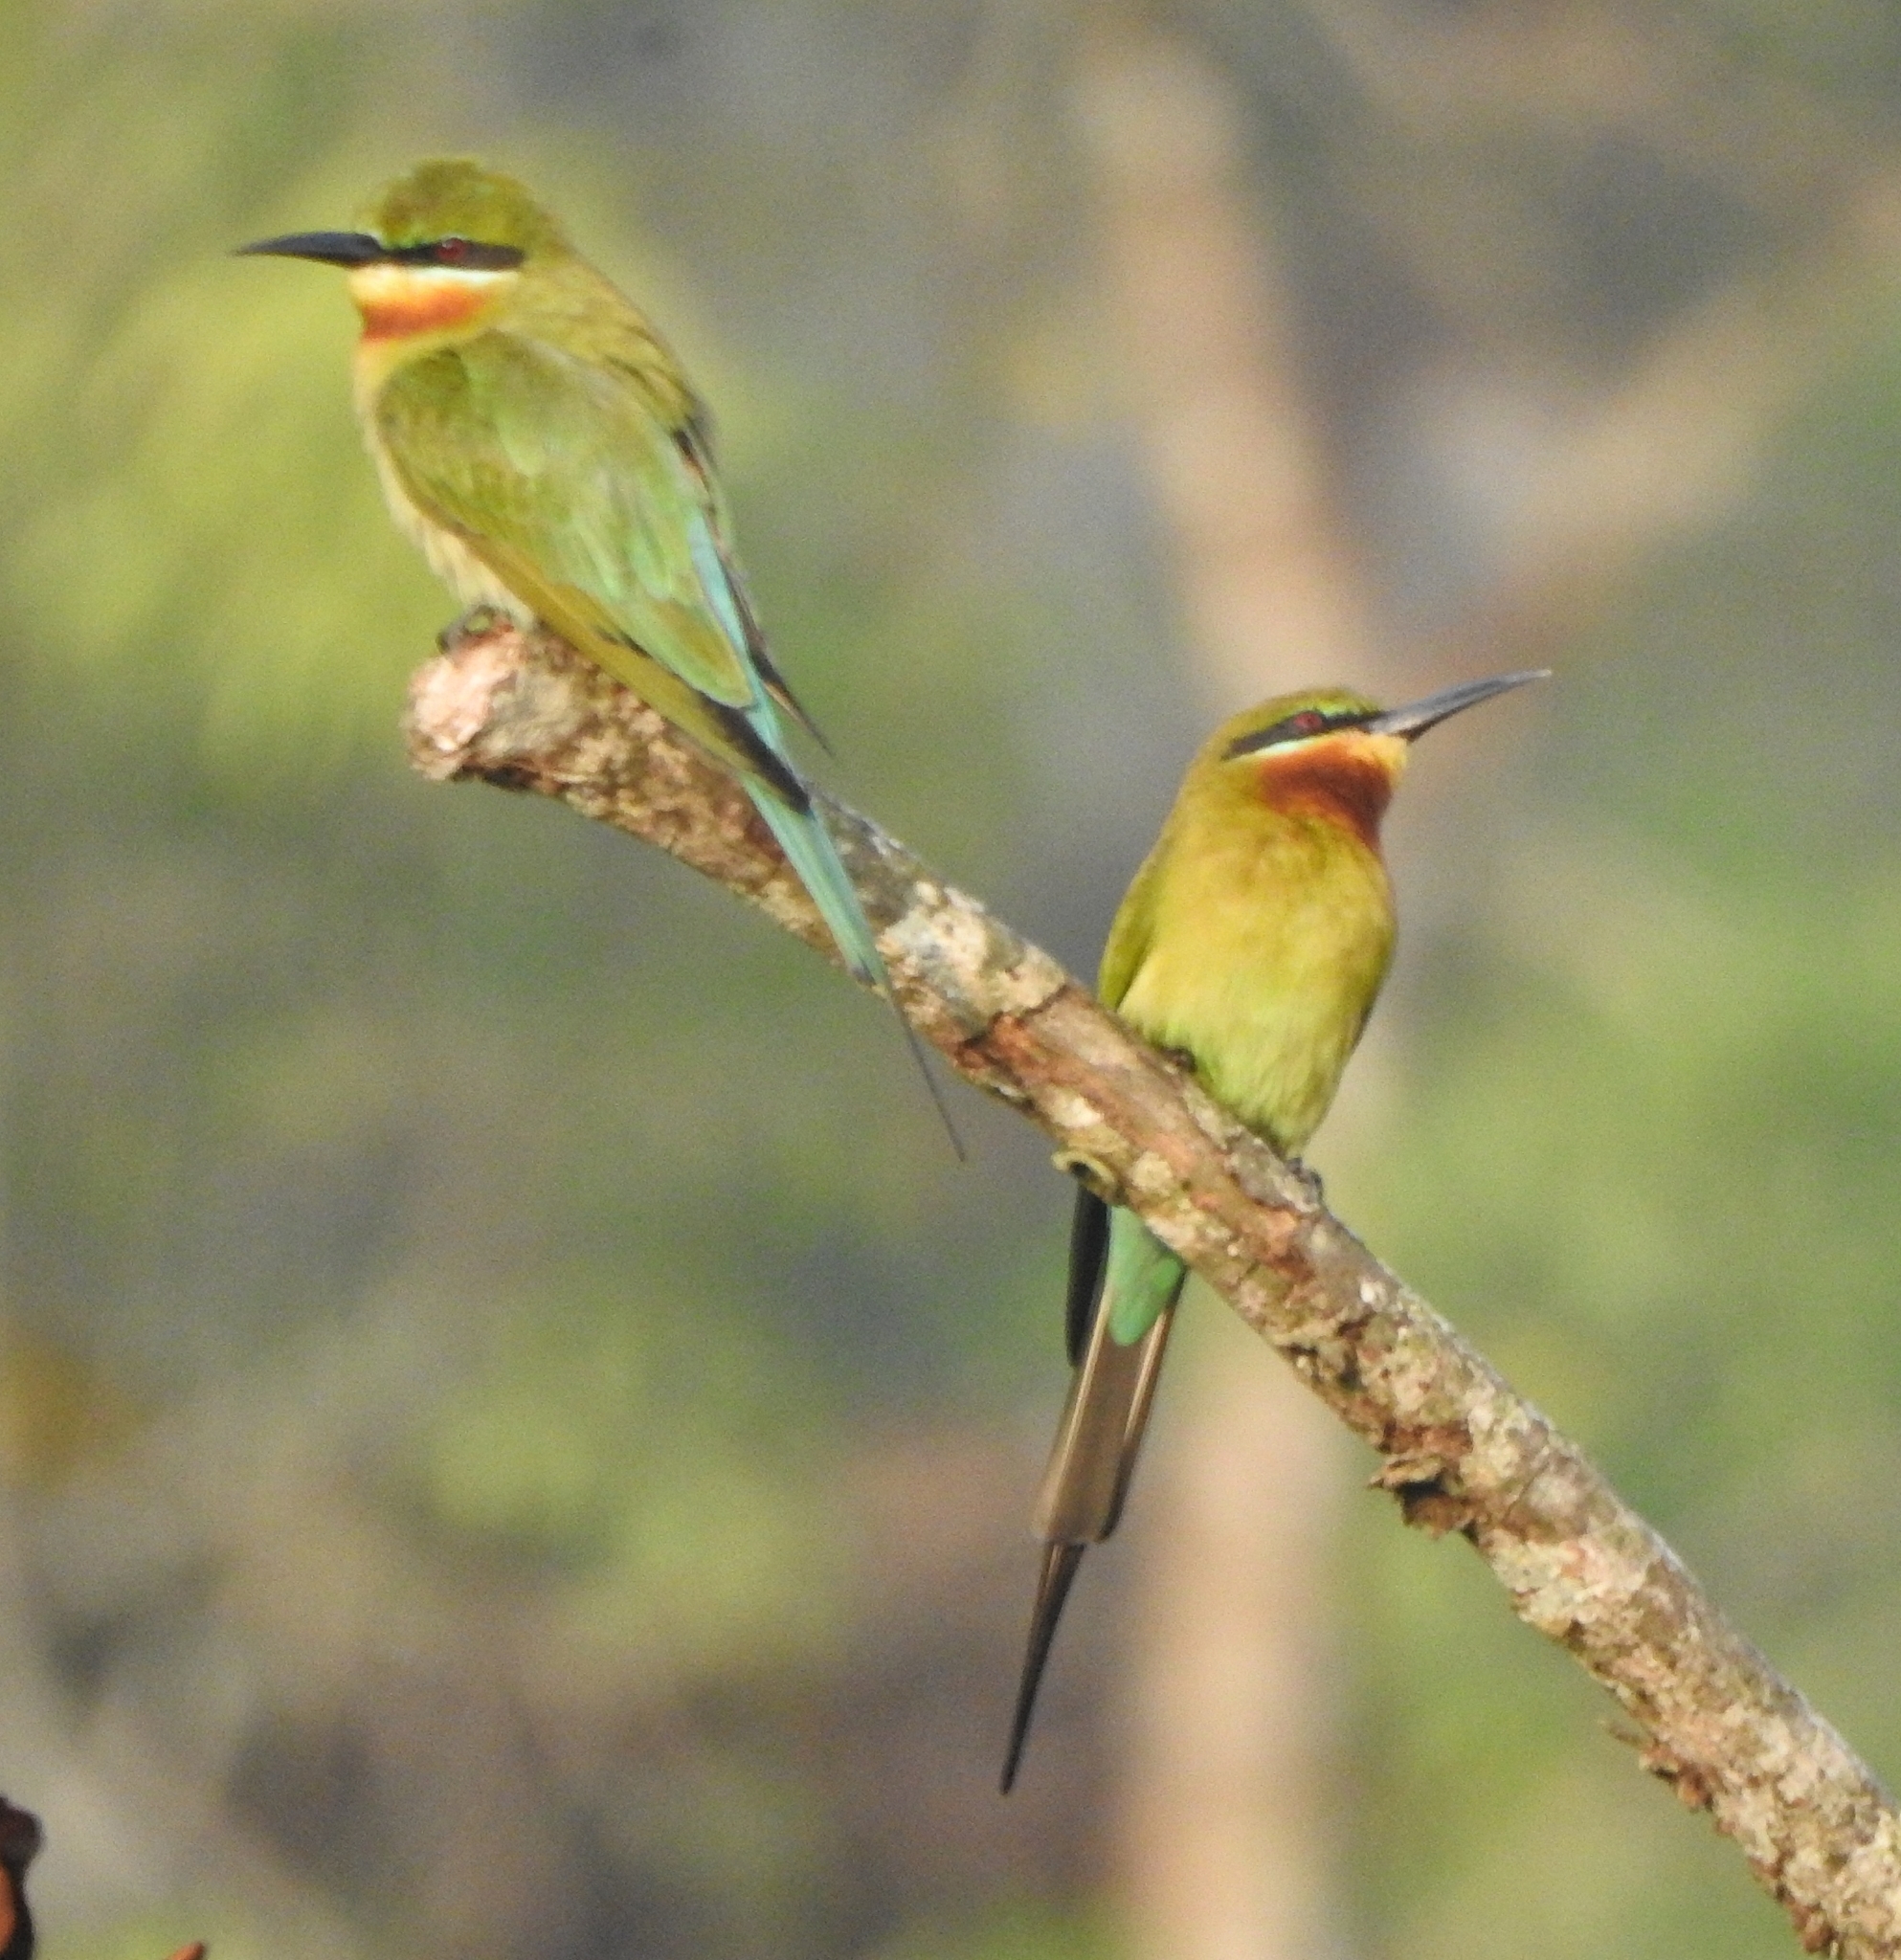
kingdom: Animalia
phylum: Chordata
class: Aves
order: Coraciiformes
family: Meropidae
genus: Merops
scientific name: Merops philippinus
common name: Blue-tailed bee-eater
